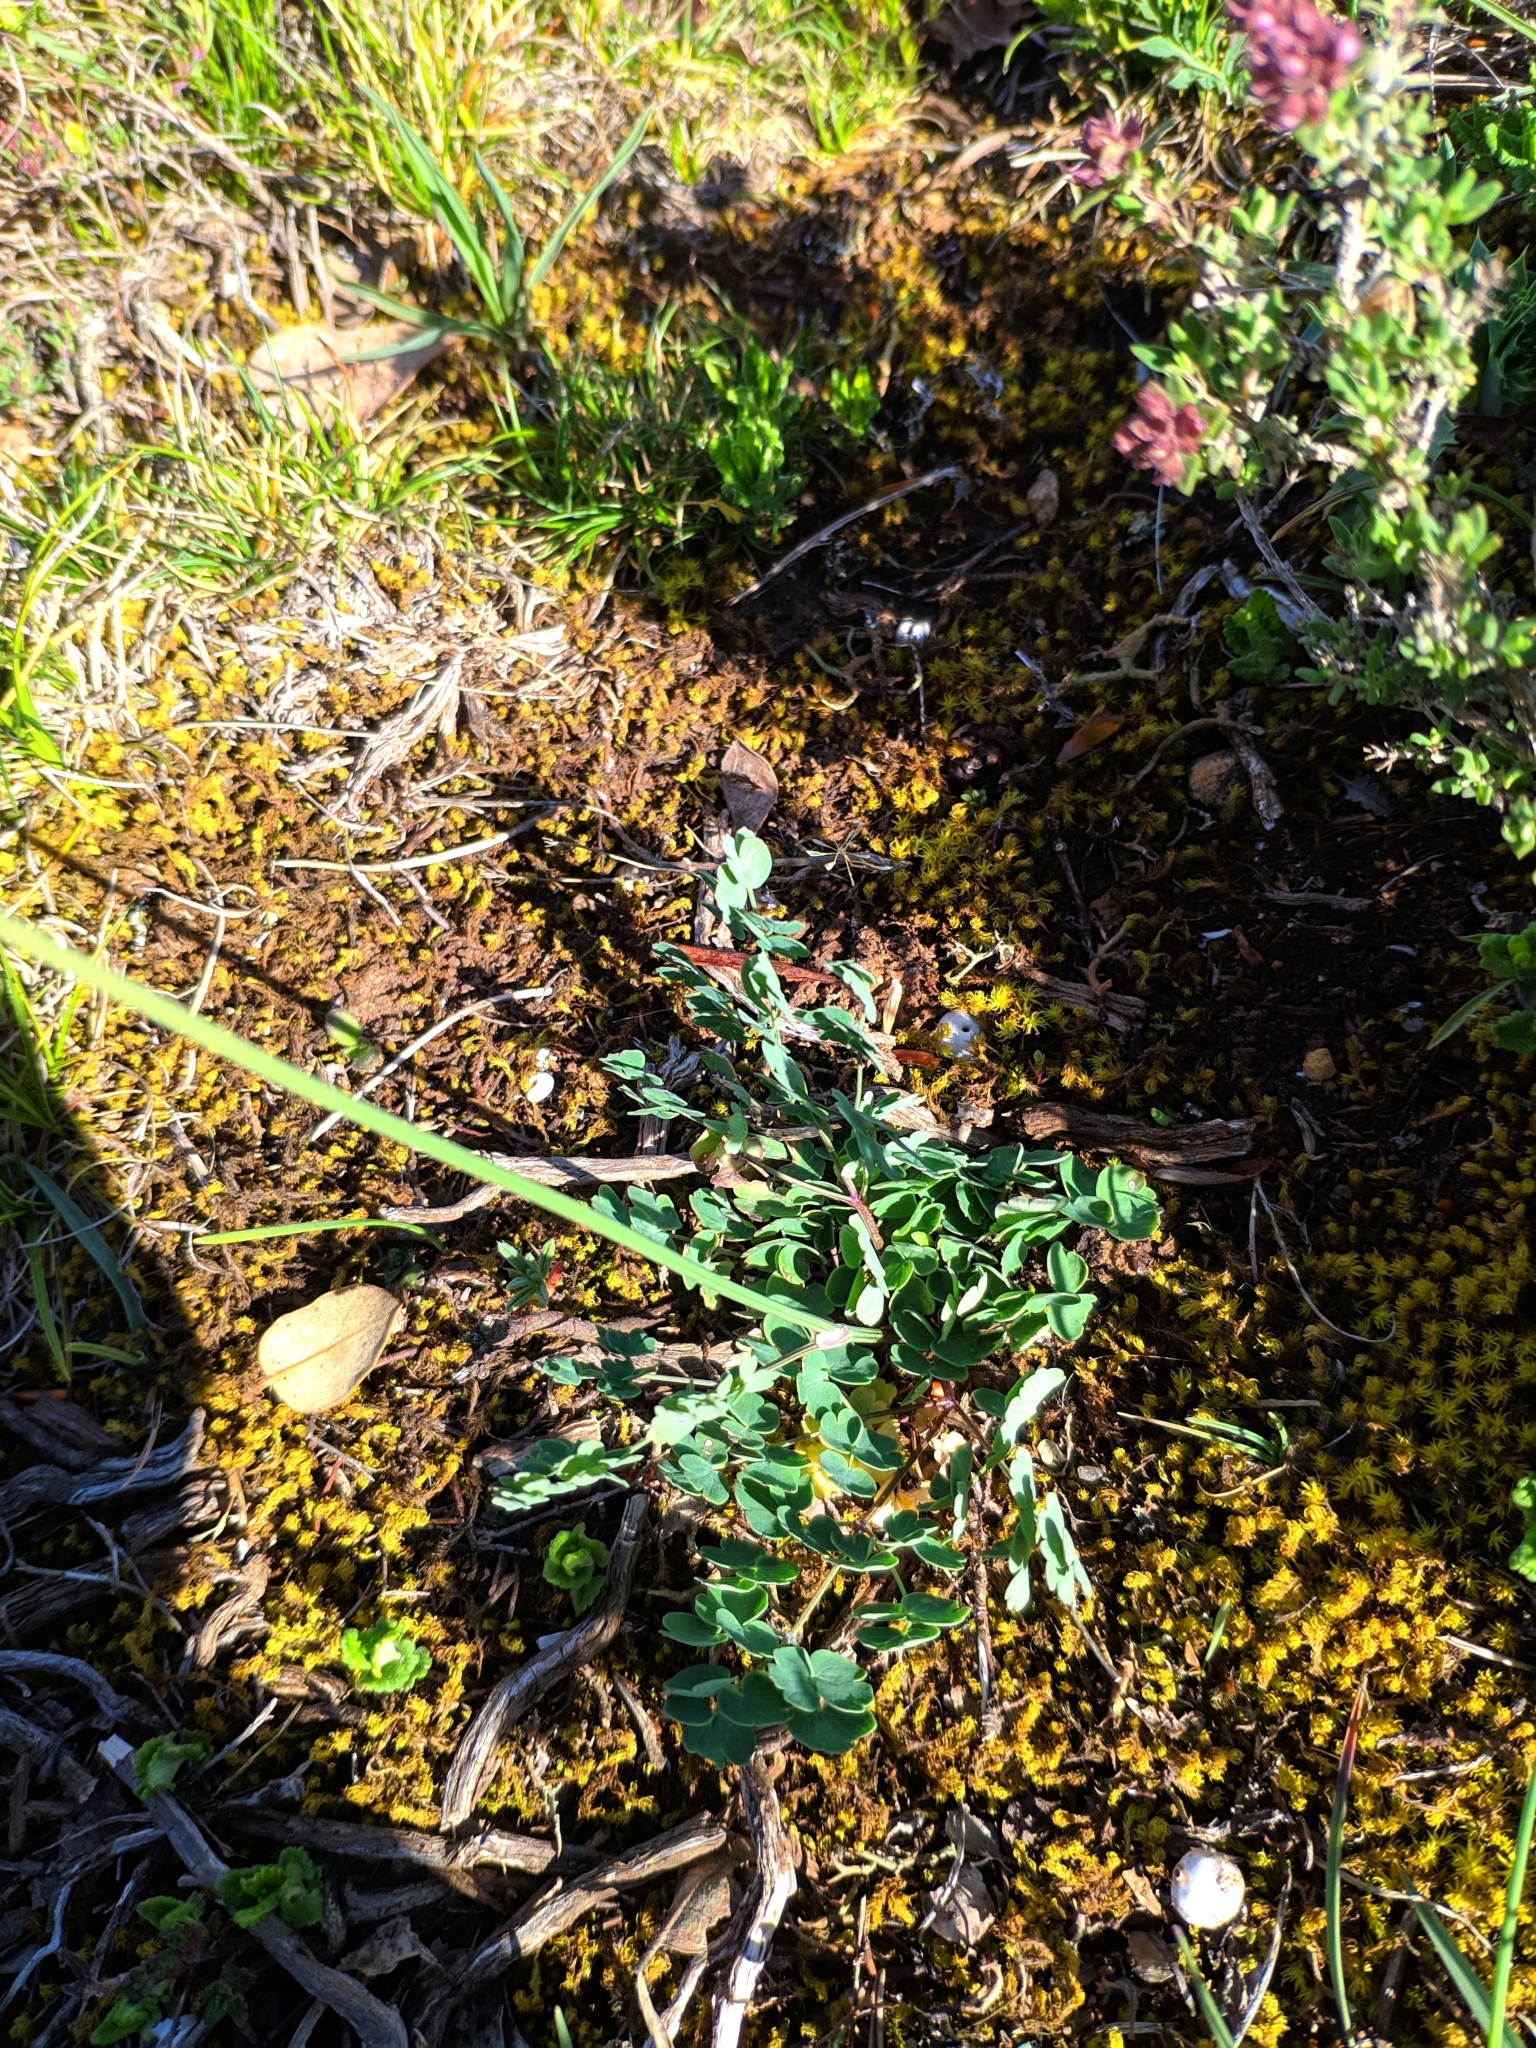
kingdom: Plantae
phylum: Tracheophyta
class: Magnoliopsida
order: Ranunculales
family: Ranunculaceae
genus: Thalictrum
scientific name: Thalictrum tuberosum
